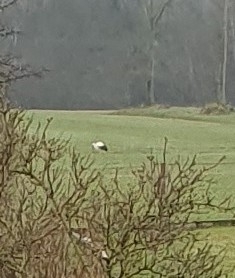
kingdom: Animalia
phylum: Chordata
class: Aves
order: Ciconiiformes
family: Ciconiidae
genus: Ciconia
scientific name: Ciconia ciconia
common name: White stork
